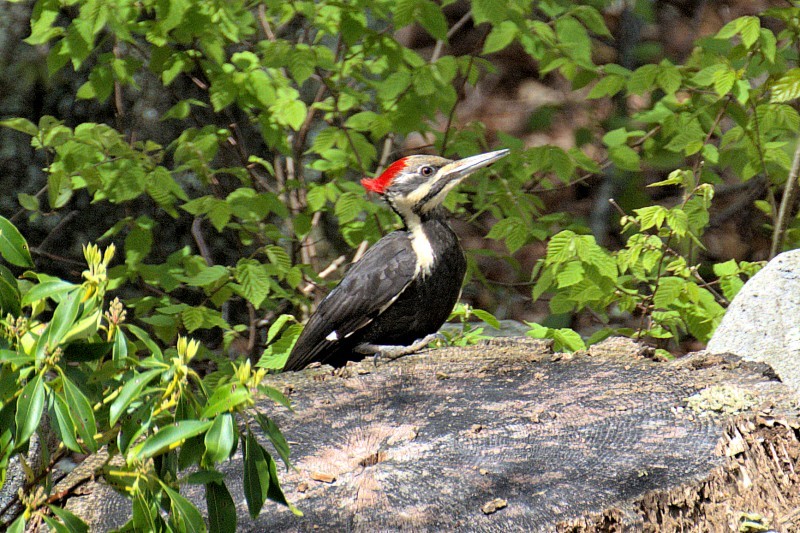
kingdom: Animalia
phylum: Chordata
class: Aves
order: Piciformes
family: Picidae
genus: Dryocopus
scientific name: Dryocopus pileatus
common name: Pileated woodpecker
